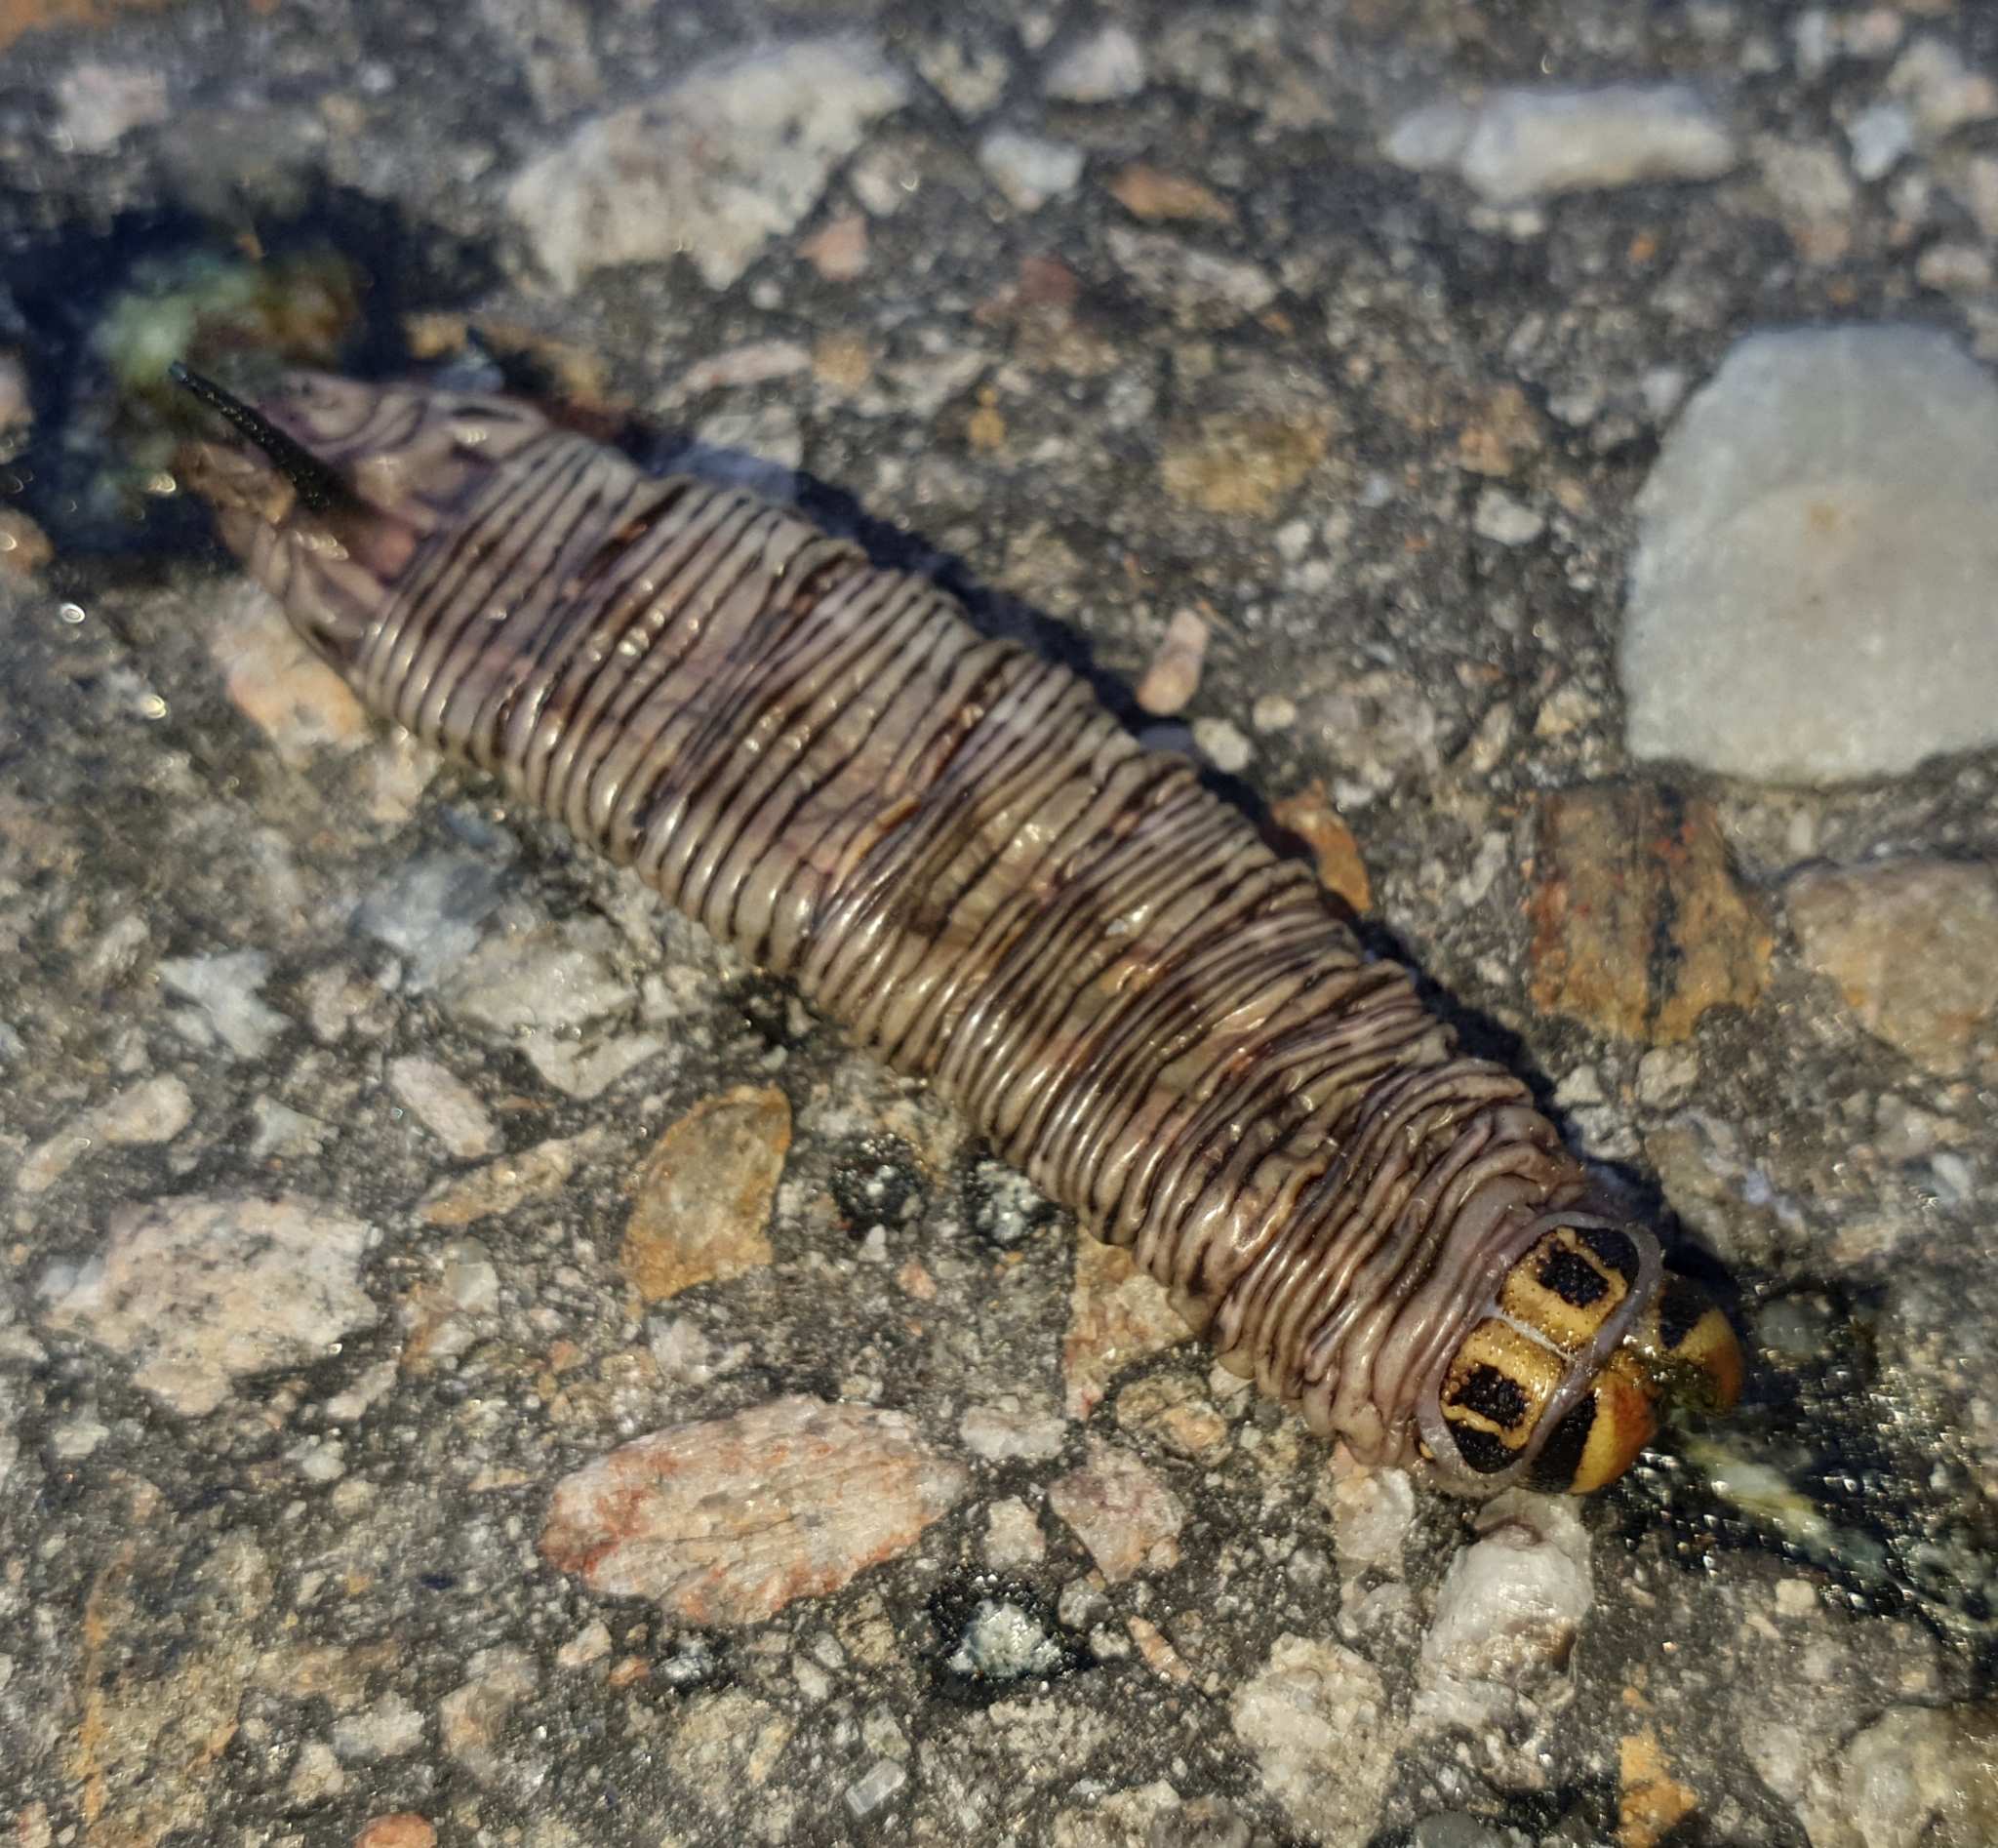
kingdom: Animalia
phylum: Arthropoda
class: Insecta
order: Lepidoptera
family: Sphingidae
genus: Sphinx
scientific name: Sphinx pinastri
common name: Pine hawk-moth
